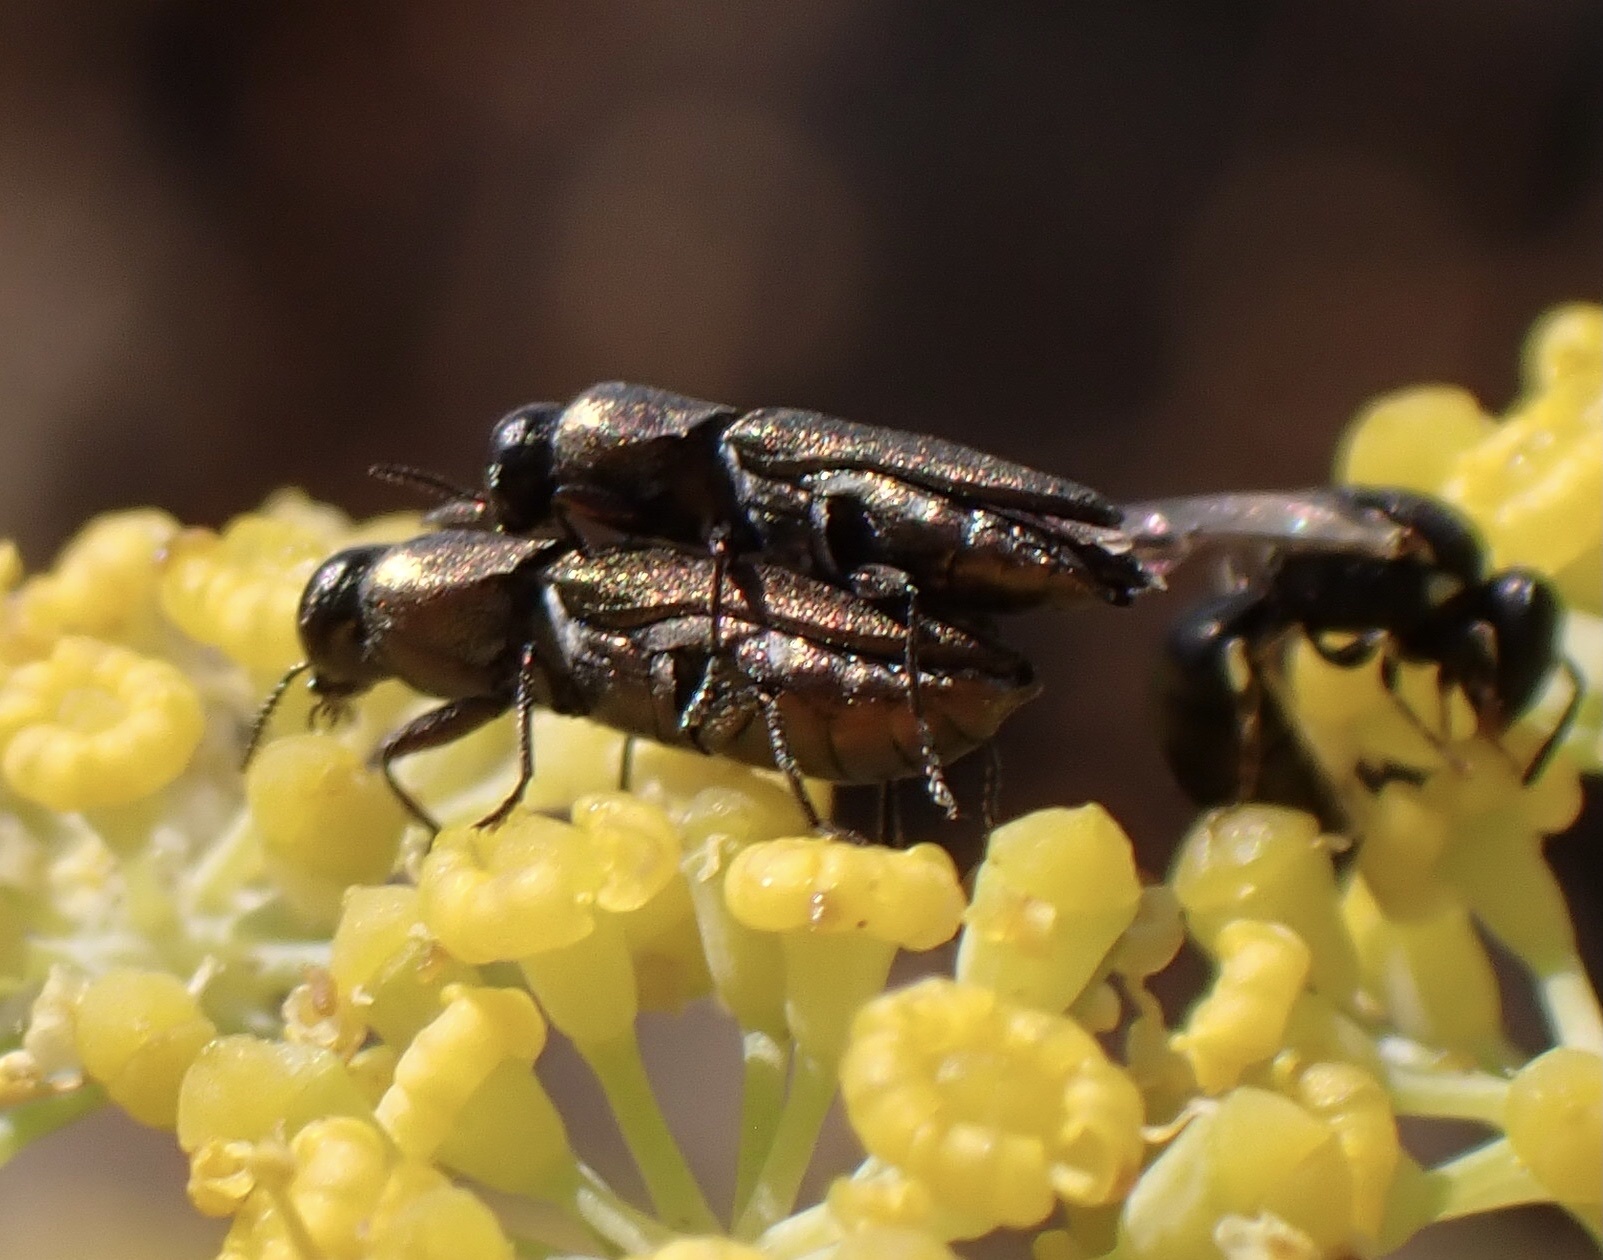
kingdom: Animalia
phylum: Arthropoda
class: Insecta
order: Coleoptera
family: Buprestidae
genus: Anthaxia
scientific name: Anthaxia umbellatarum
